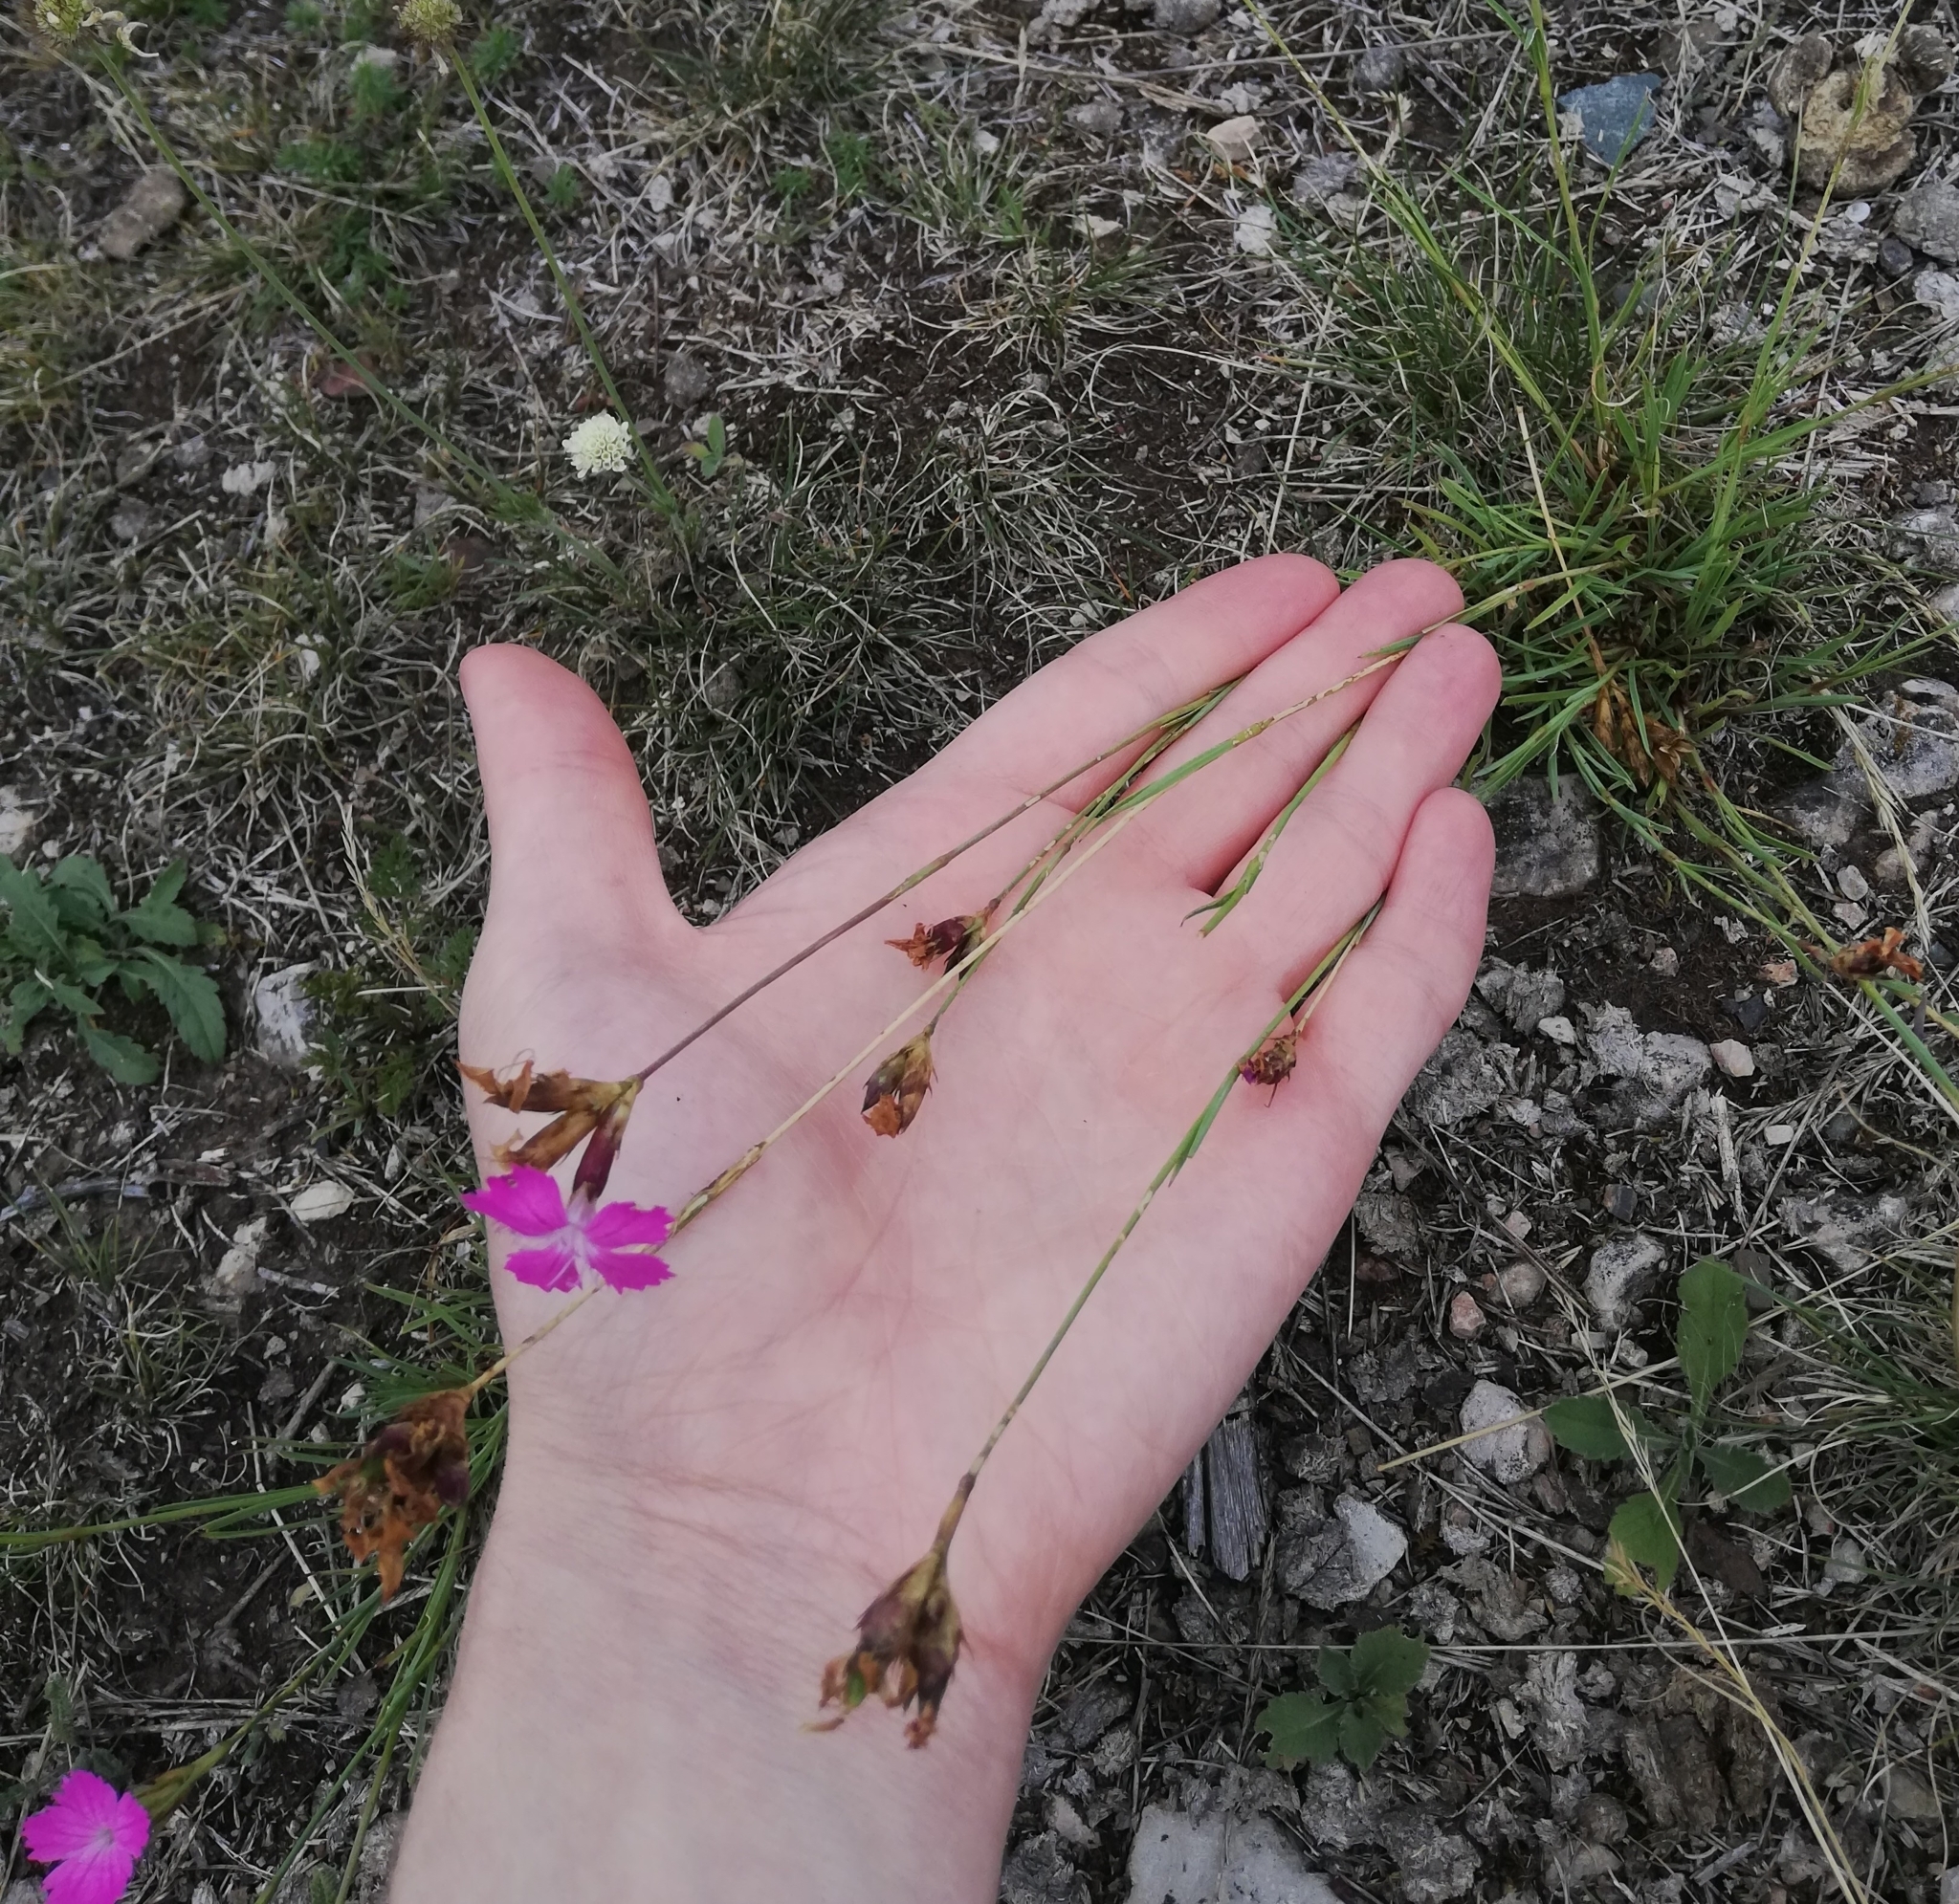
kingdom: Plantae
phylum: Tracheophyta
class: Magnoliopsida
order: Caryophyllales
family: Caryophyllaceae
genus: Dianthus
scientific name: Dianthus carthusianorum
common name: Carthusian pink
